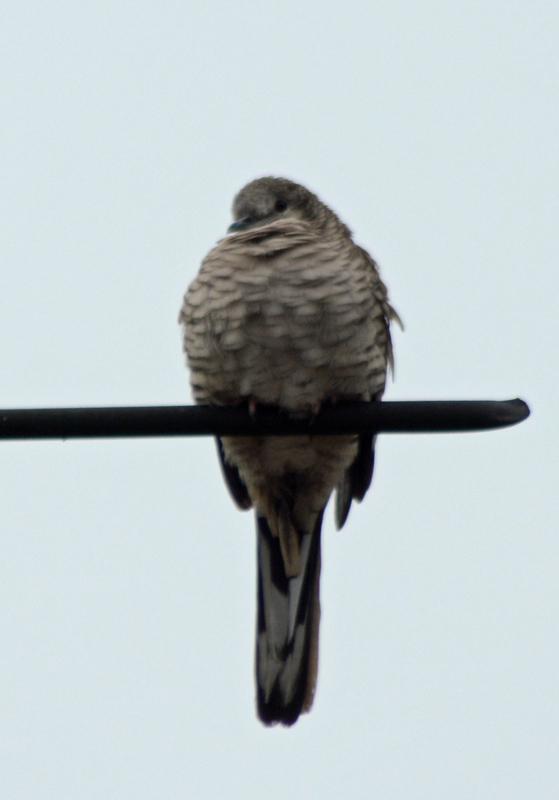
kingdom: Animalia
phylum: Chordata
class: Aves
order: Columbiformes
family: Columbidae
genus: Columbina
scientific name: Columbina inca
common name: Inca dove
